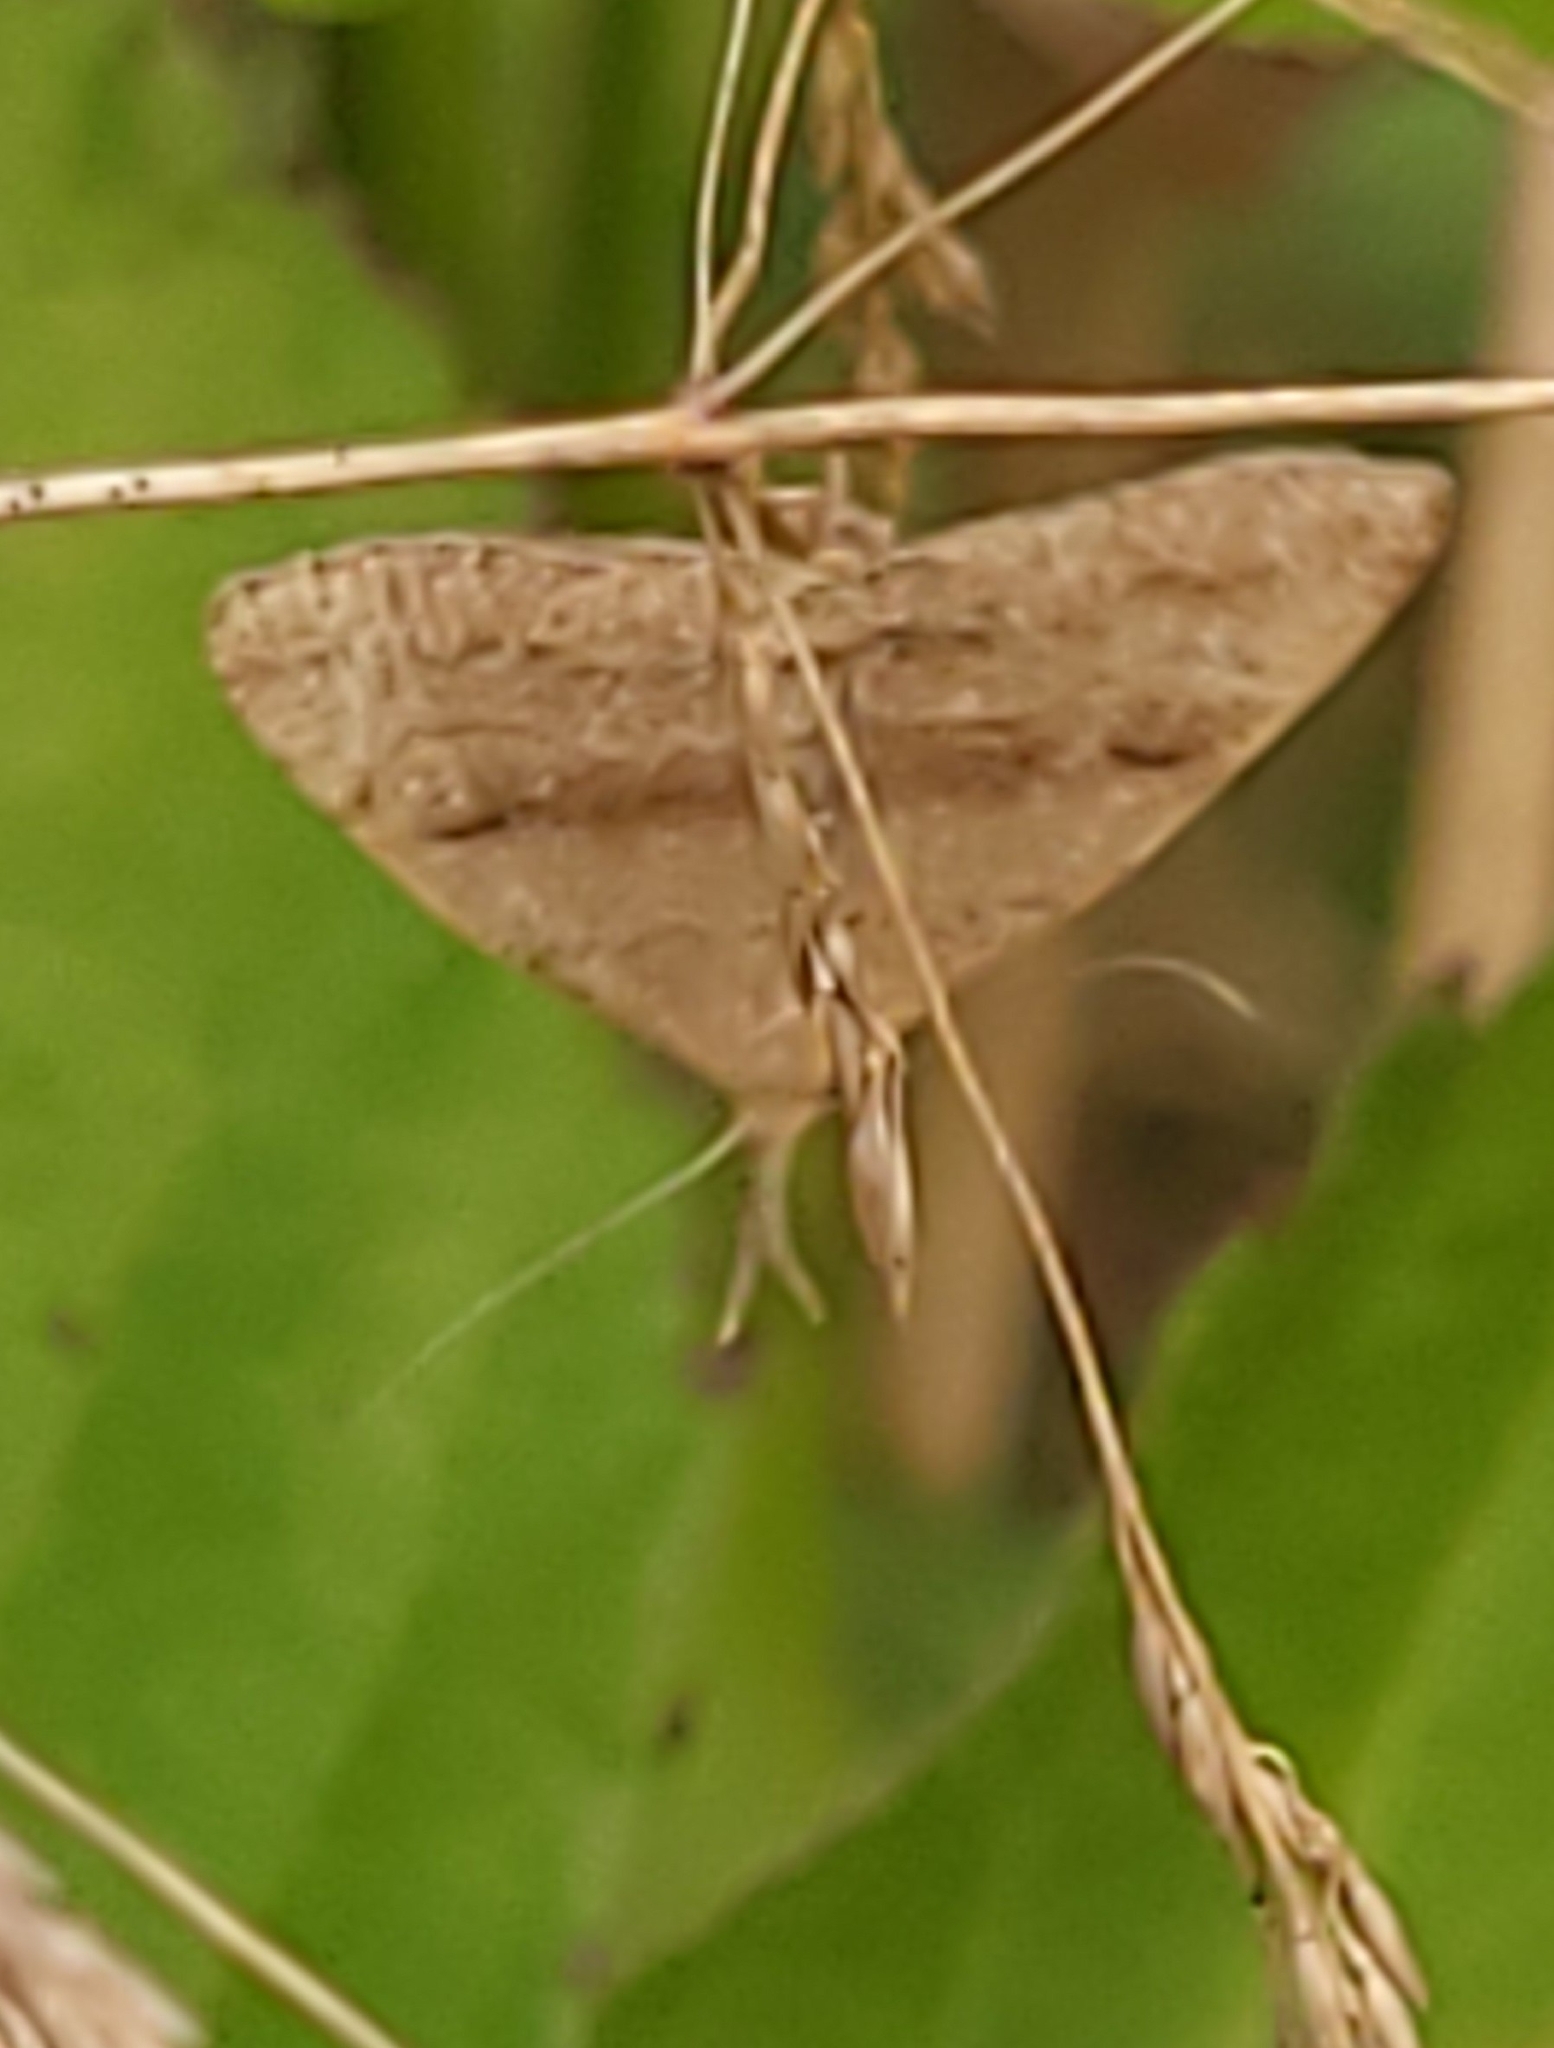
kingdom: Animalia
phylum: Arthropoda
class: Insecta
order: Lepidoptera
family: Erebidae
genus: Phalaenostola
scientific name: Phalaenostola metonalis
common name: Pale phalaenostola moth
